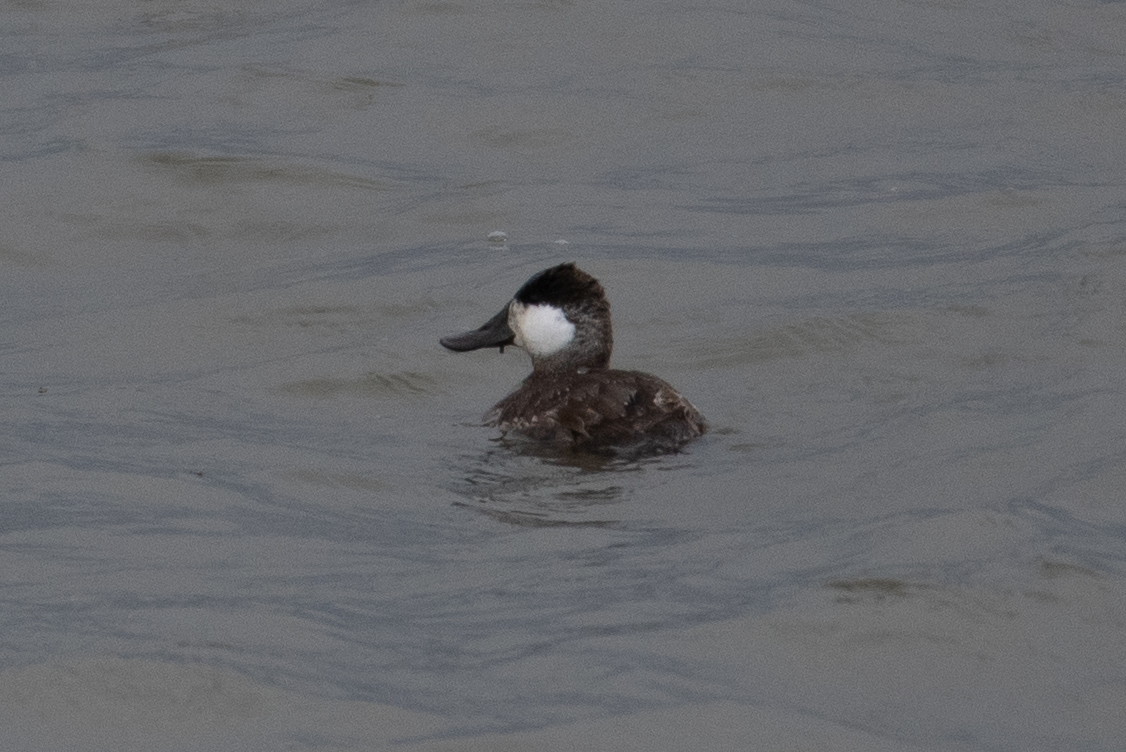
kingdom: Animalia
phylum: Chordata
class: Aves
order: Anseriformes
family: Anatidae
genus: Oxyura
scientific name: Oxyura jamaicensis
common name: Ruddy duck
